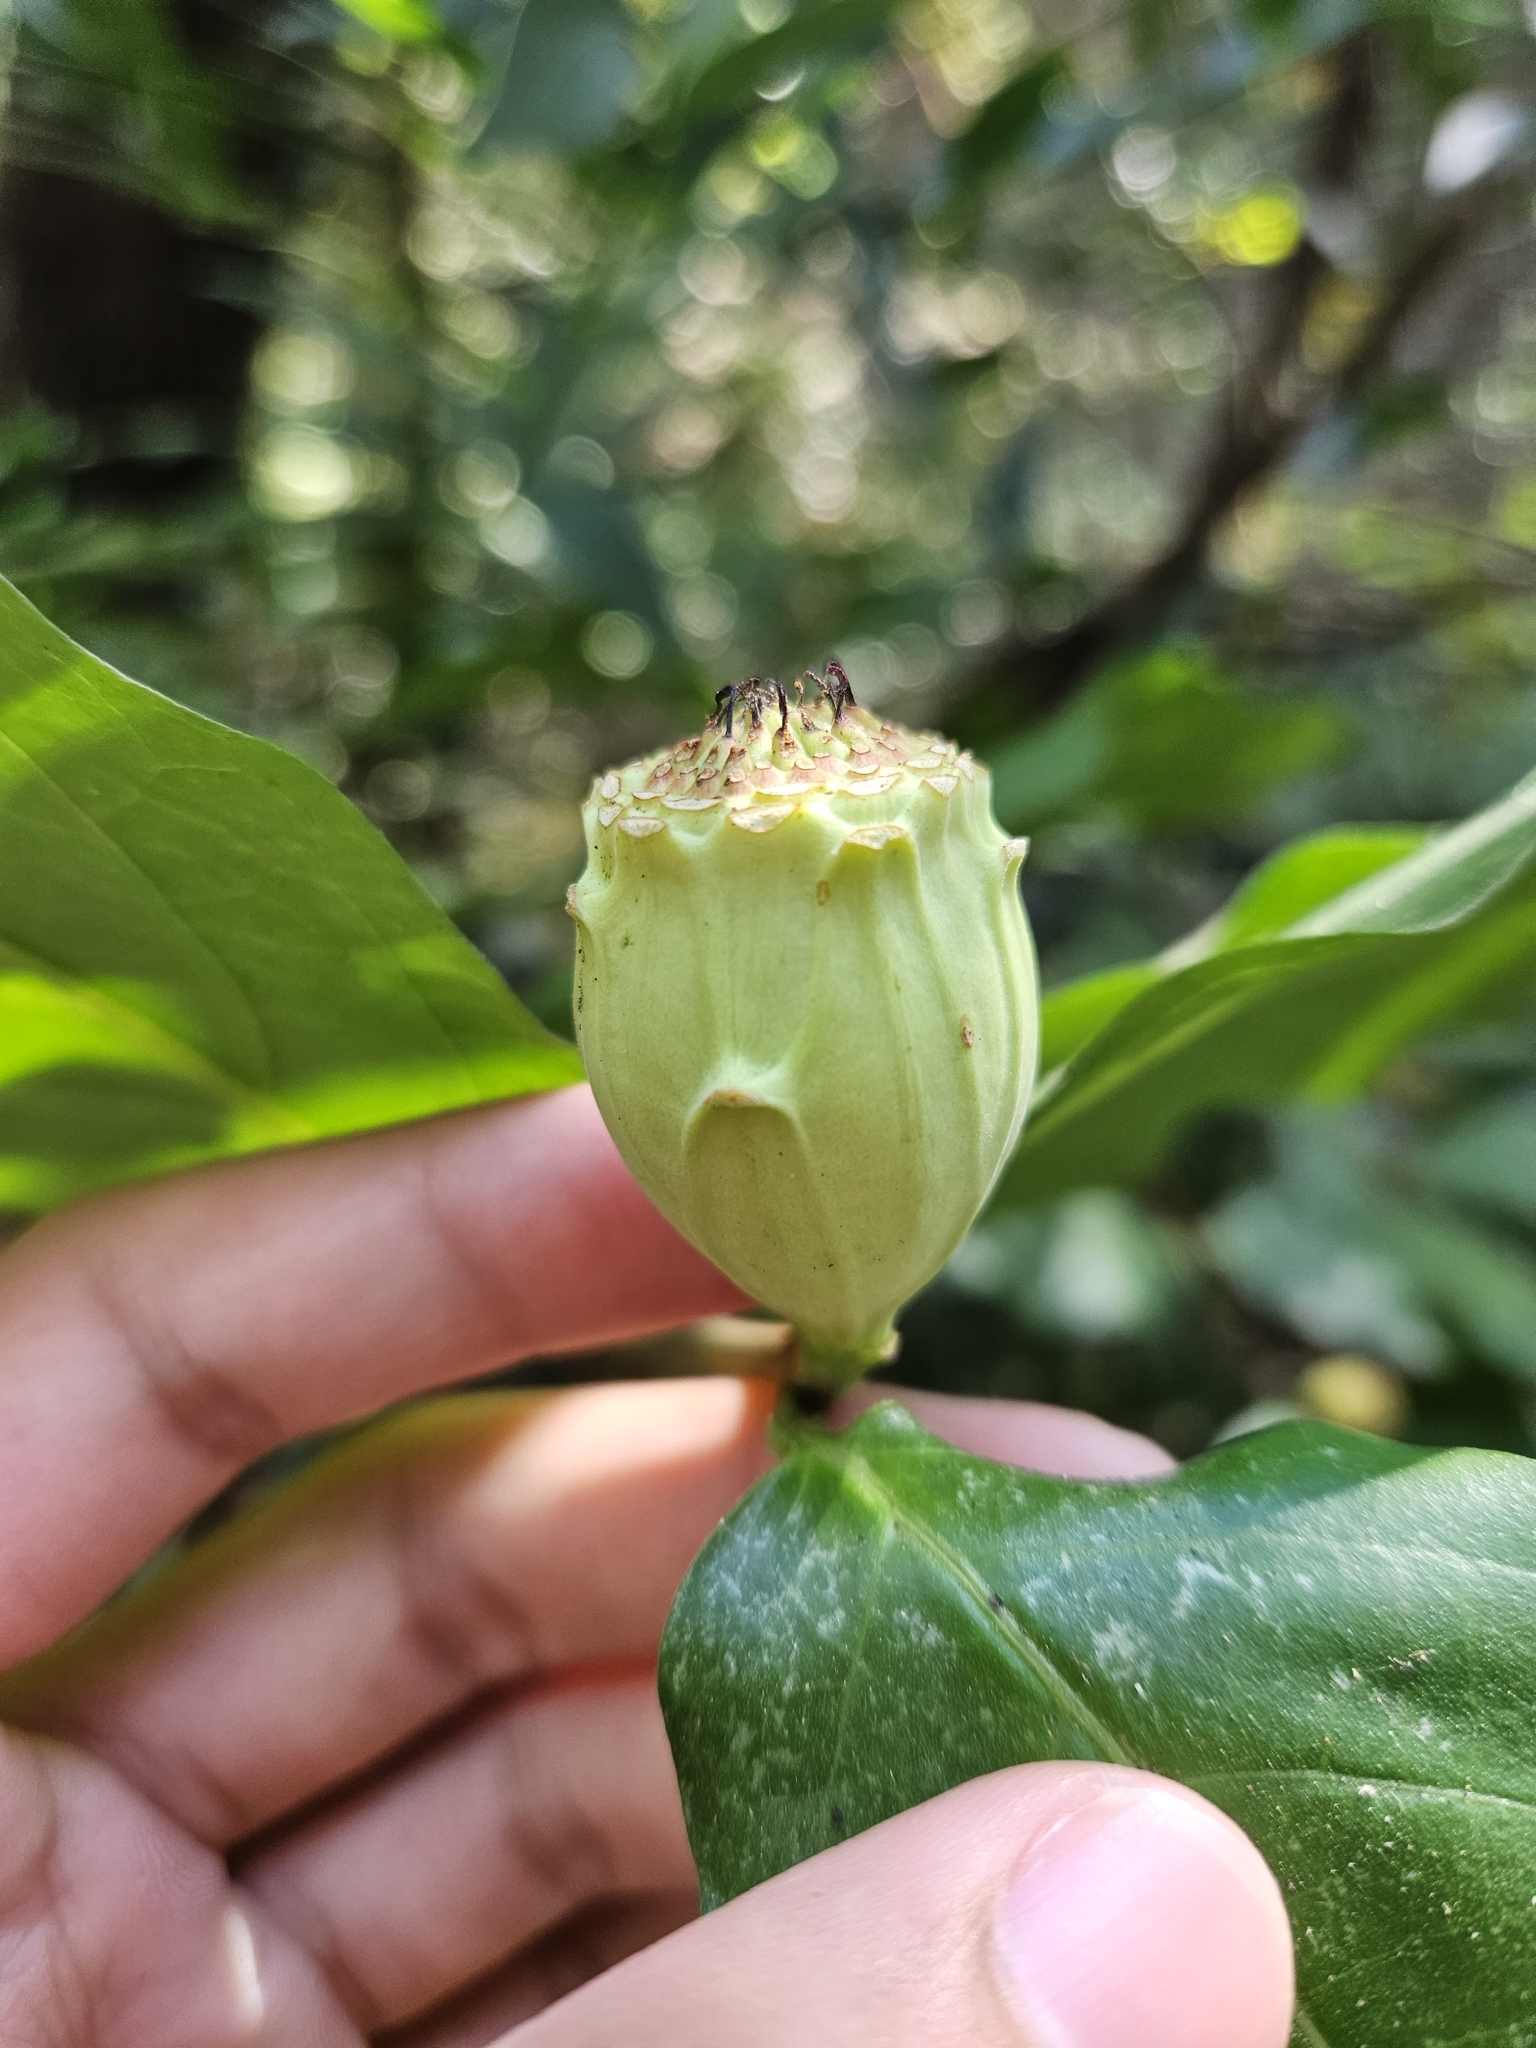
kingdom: Plantae
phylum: Tracheophyta
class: Magnoliopsida
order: Laurales
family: Calycanthaceae
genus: Calycanthus
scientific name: Calycanthus occidentalis
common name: California spicebush
